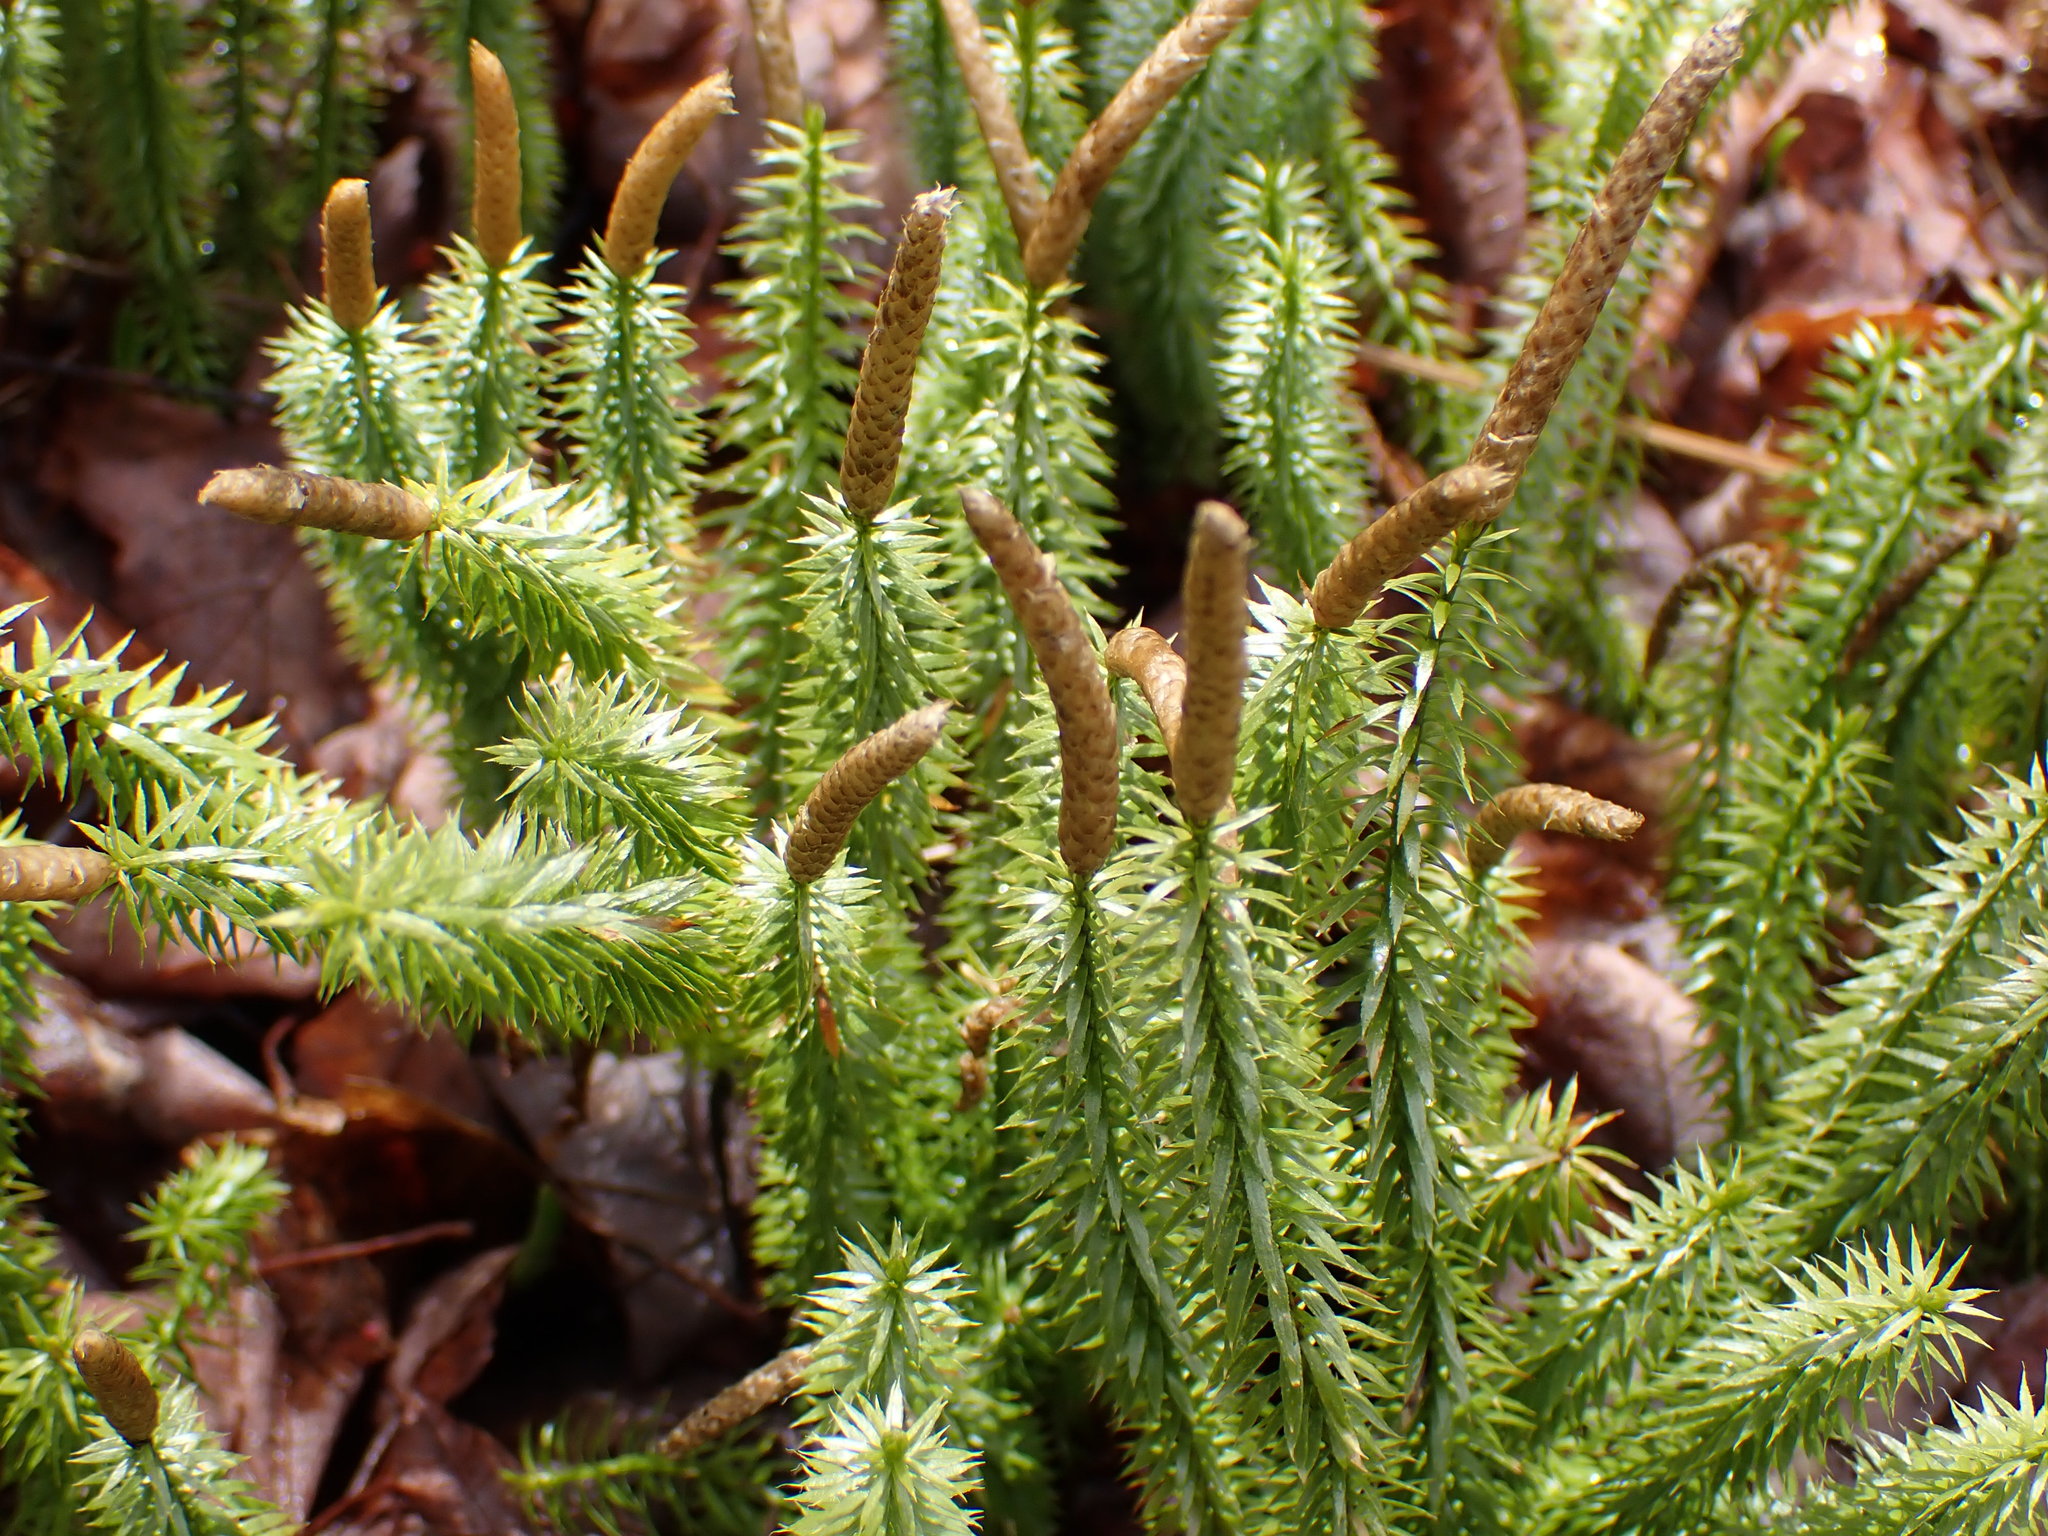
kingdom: Plantae
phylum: Tracheophyta
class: Lycopodiopsida
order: Lycopodiales
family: Lycopodiaceae
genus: Spinulum
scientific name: Spinulum annotinum
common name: Interrupted club-moss
